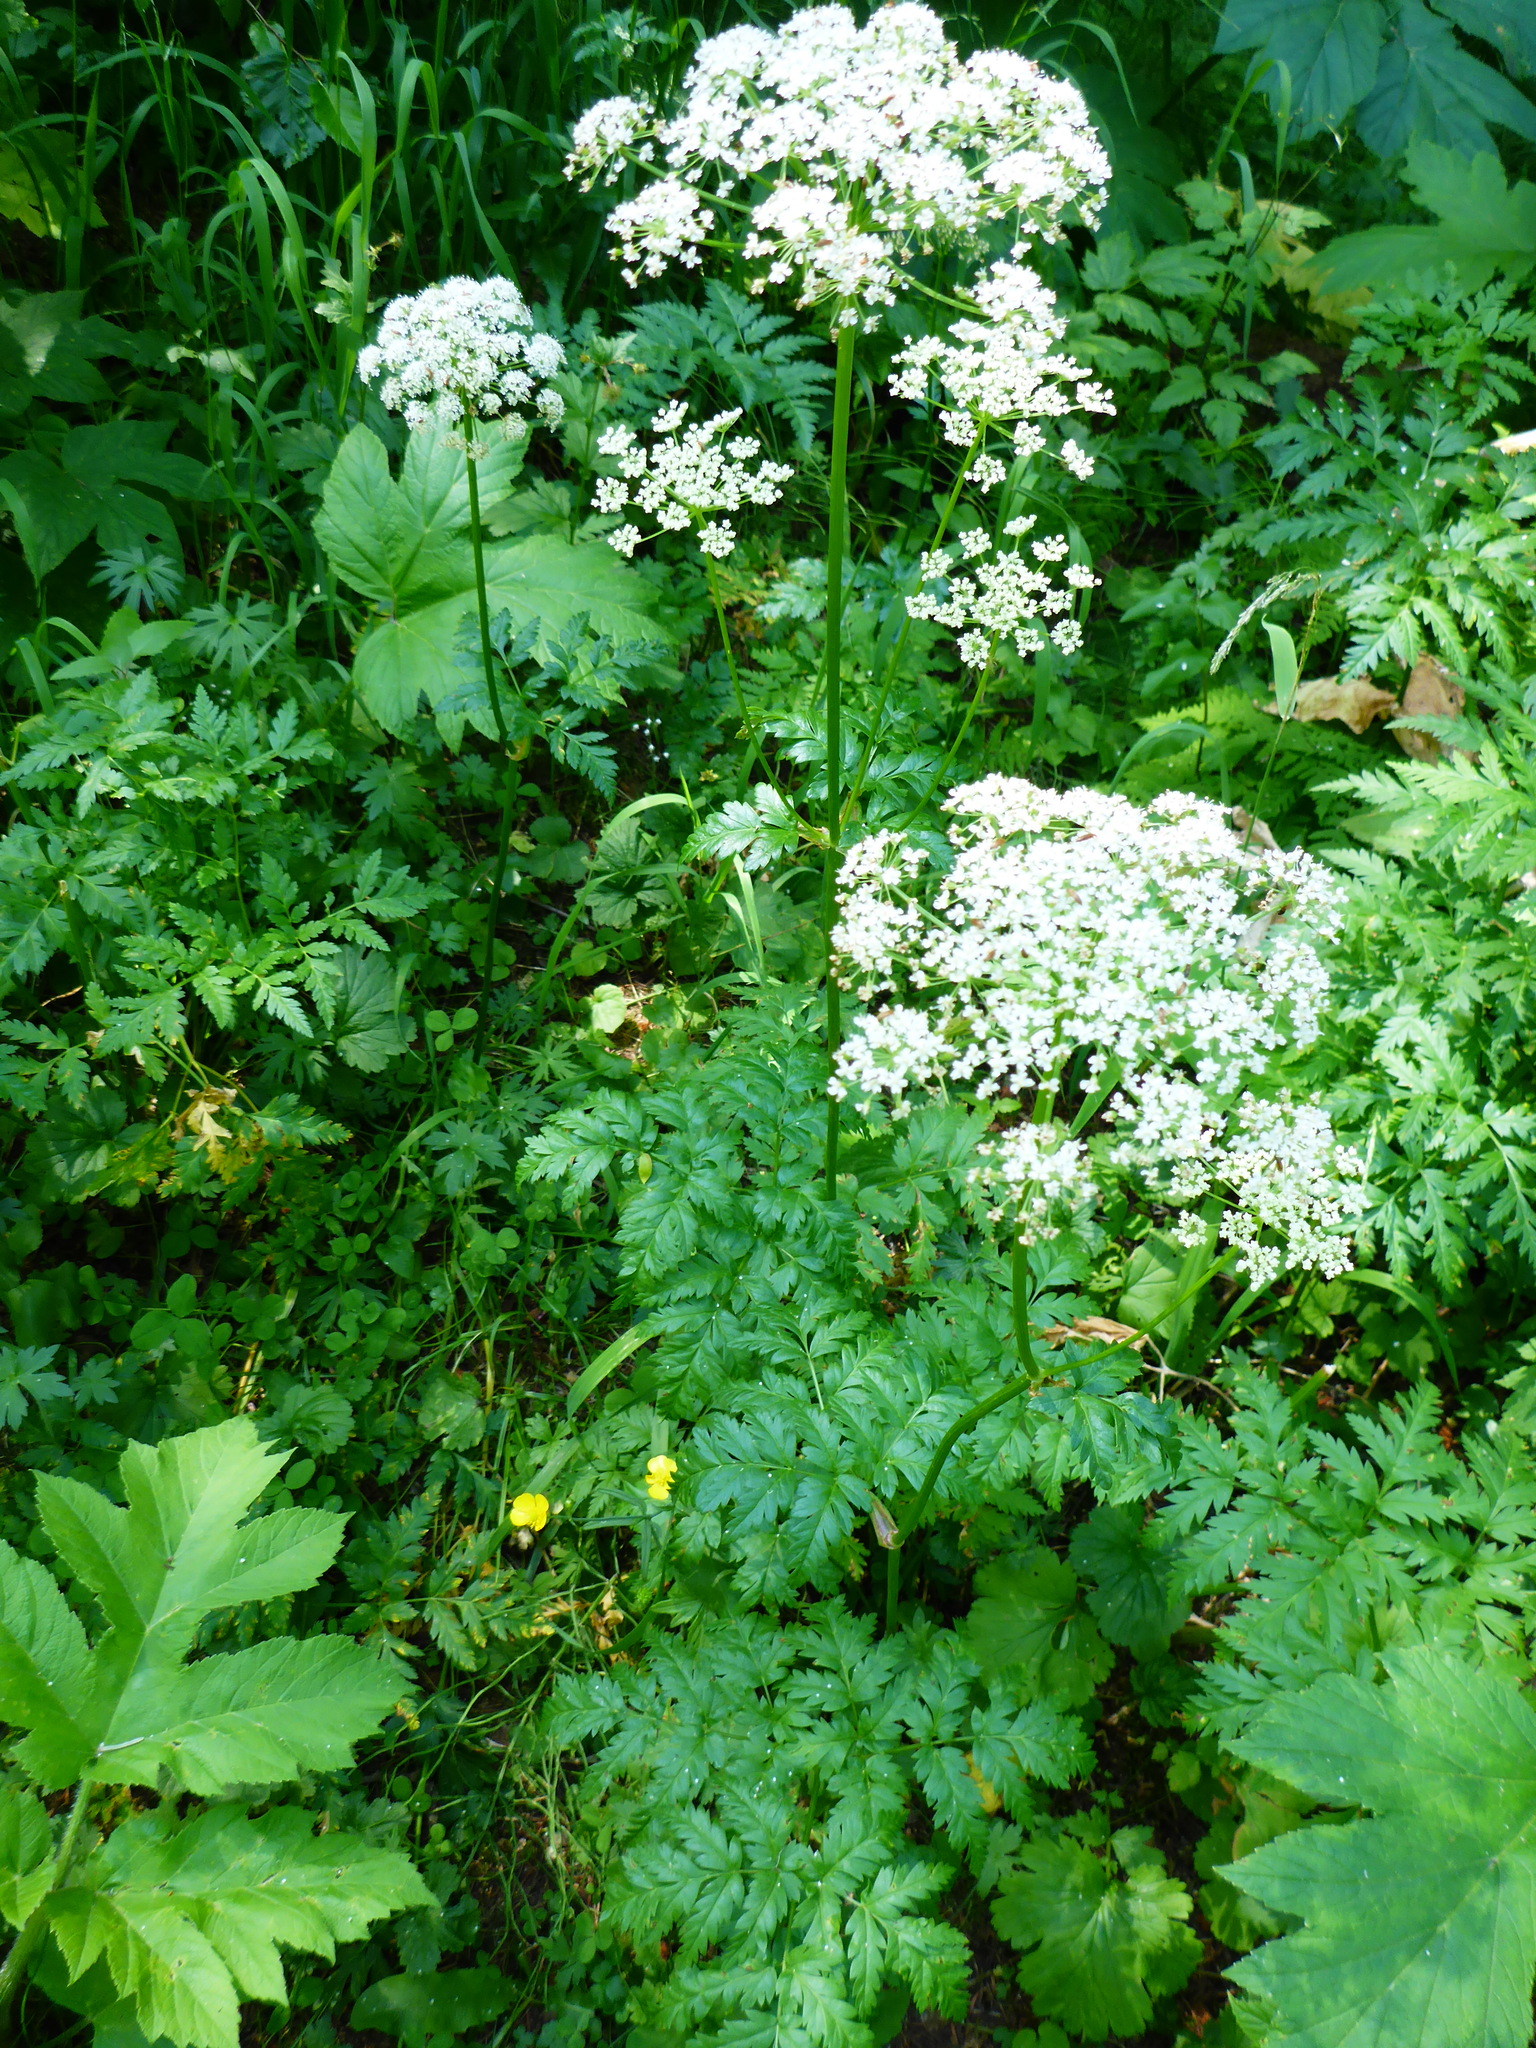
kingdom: Plantae
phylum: Tracheophyta
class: Magnoliopsida
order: Apiales
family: Apiaceae
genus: Ligusticum
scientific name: Ligusticum canbyi
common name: Canby’s licorice-root
